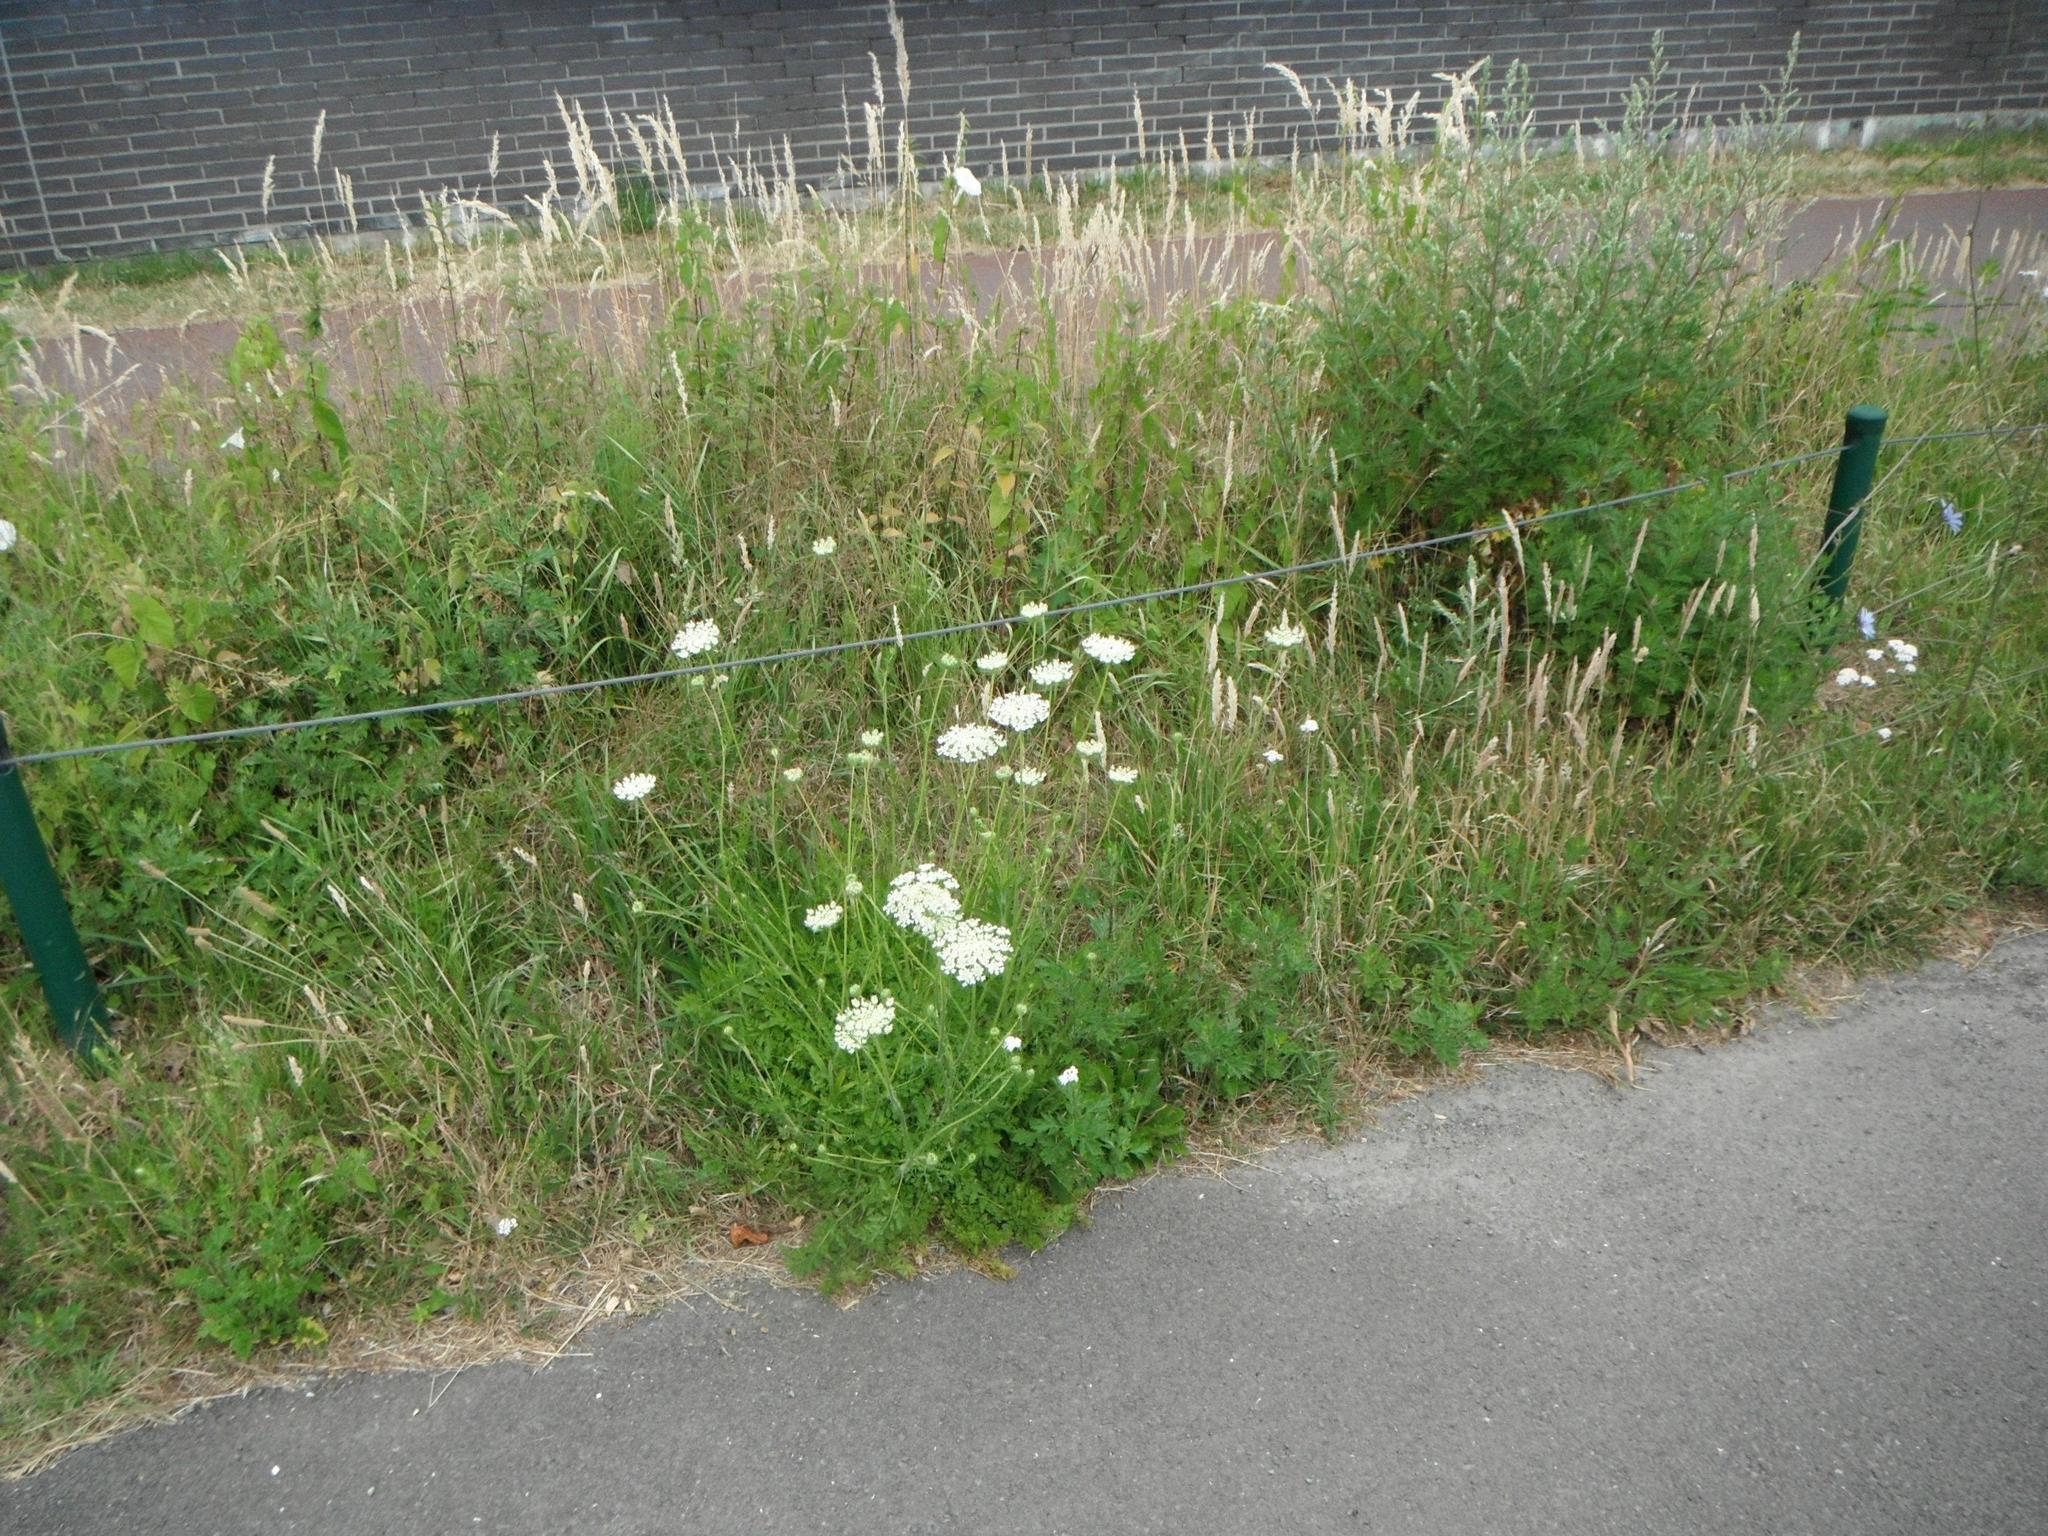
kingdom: Plantae
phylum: Tracheophyta
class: Magnoliopsida
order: Apiales
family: Apiaceae
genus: Daucus
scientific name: Daucus carota
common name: Wild carrot
